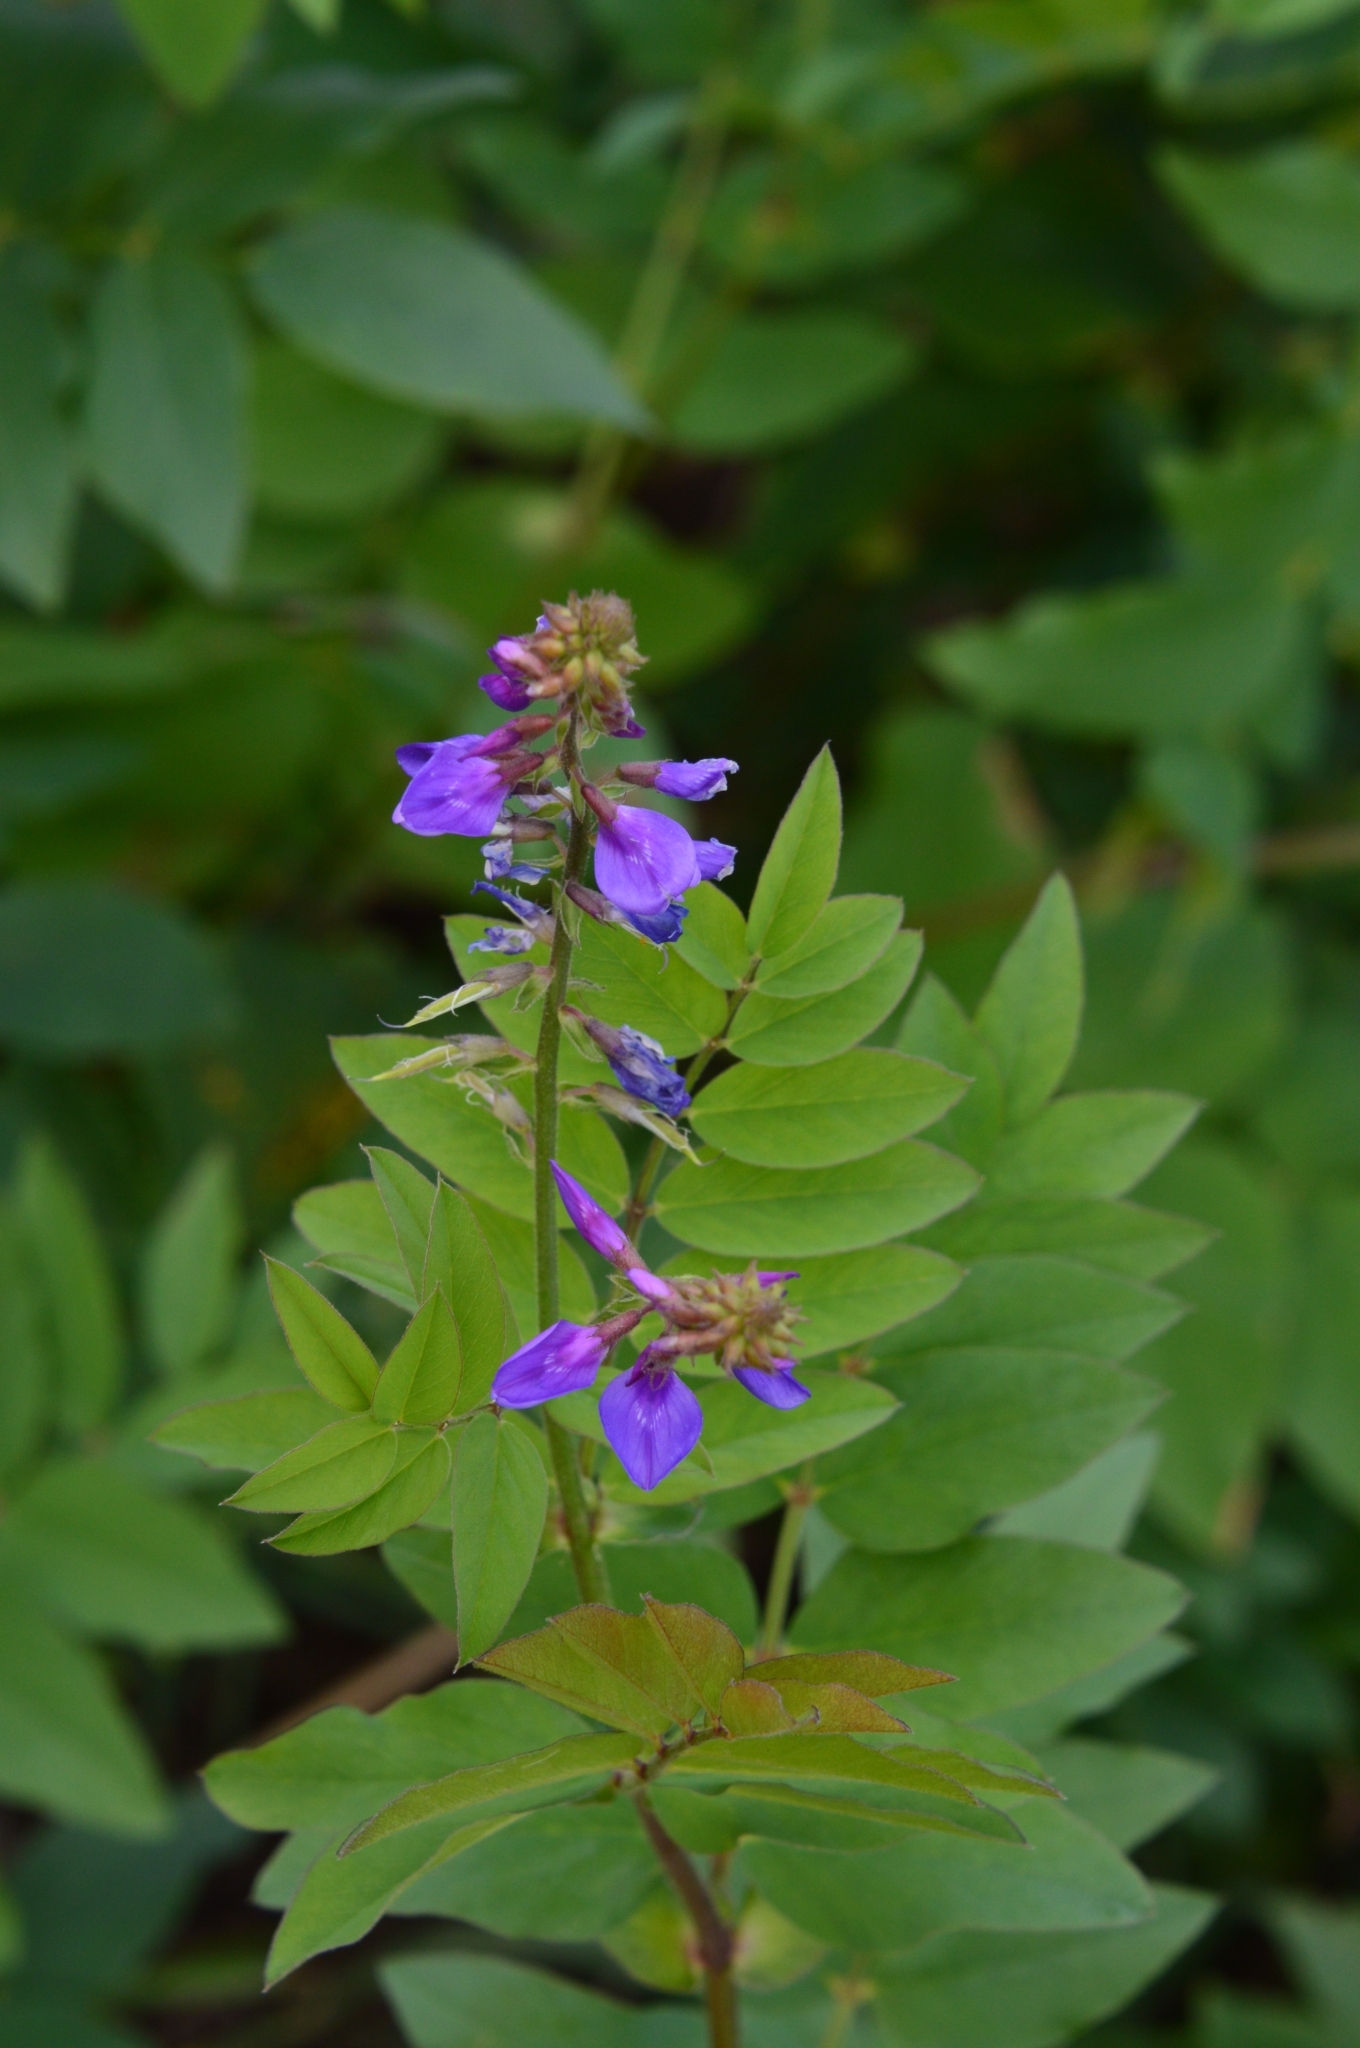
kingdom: Plantae
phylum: Tracheophyta
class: Magnoliopsida
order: Fabales
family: Fabaceae
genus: Galega
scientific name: Galega orientalis
